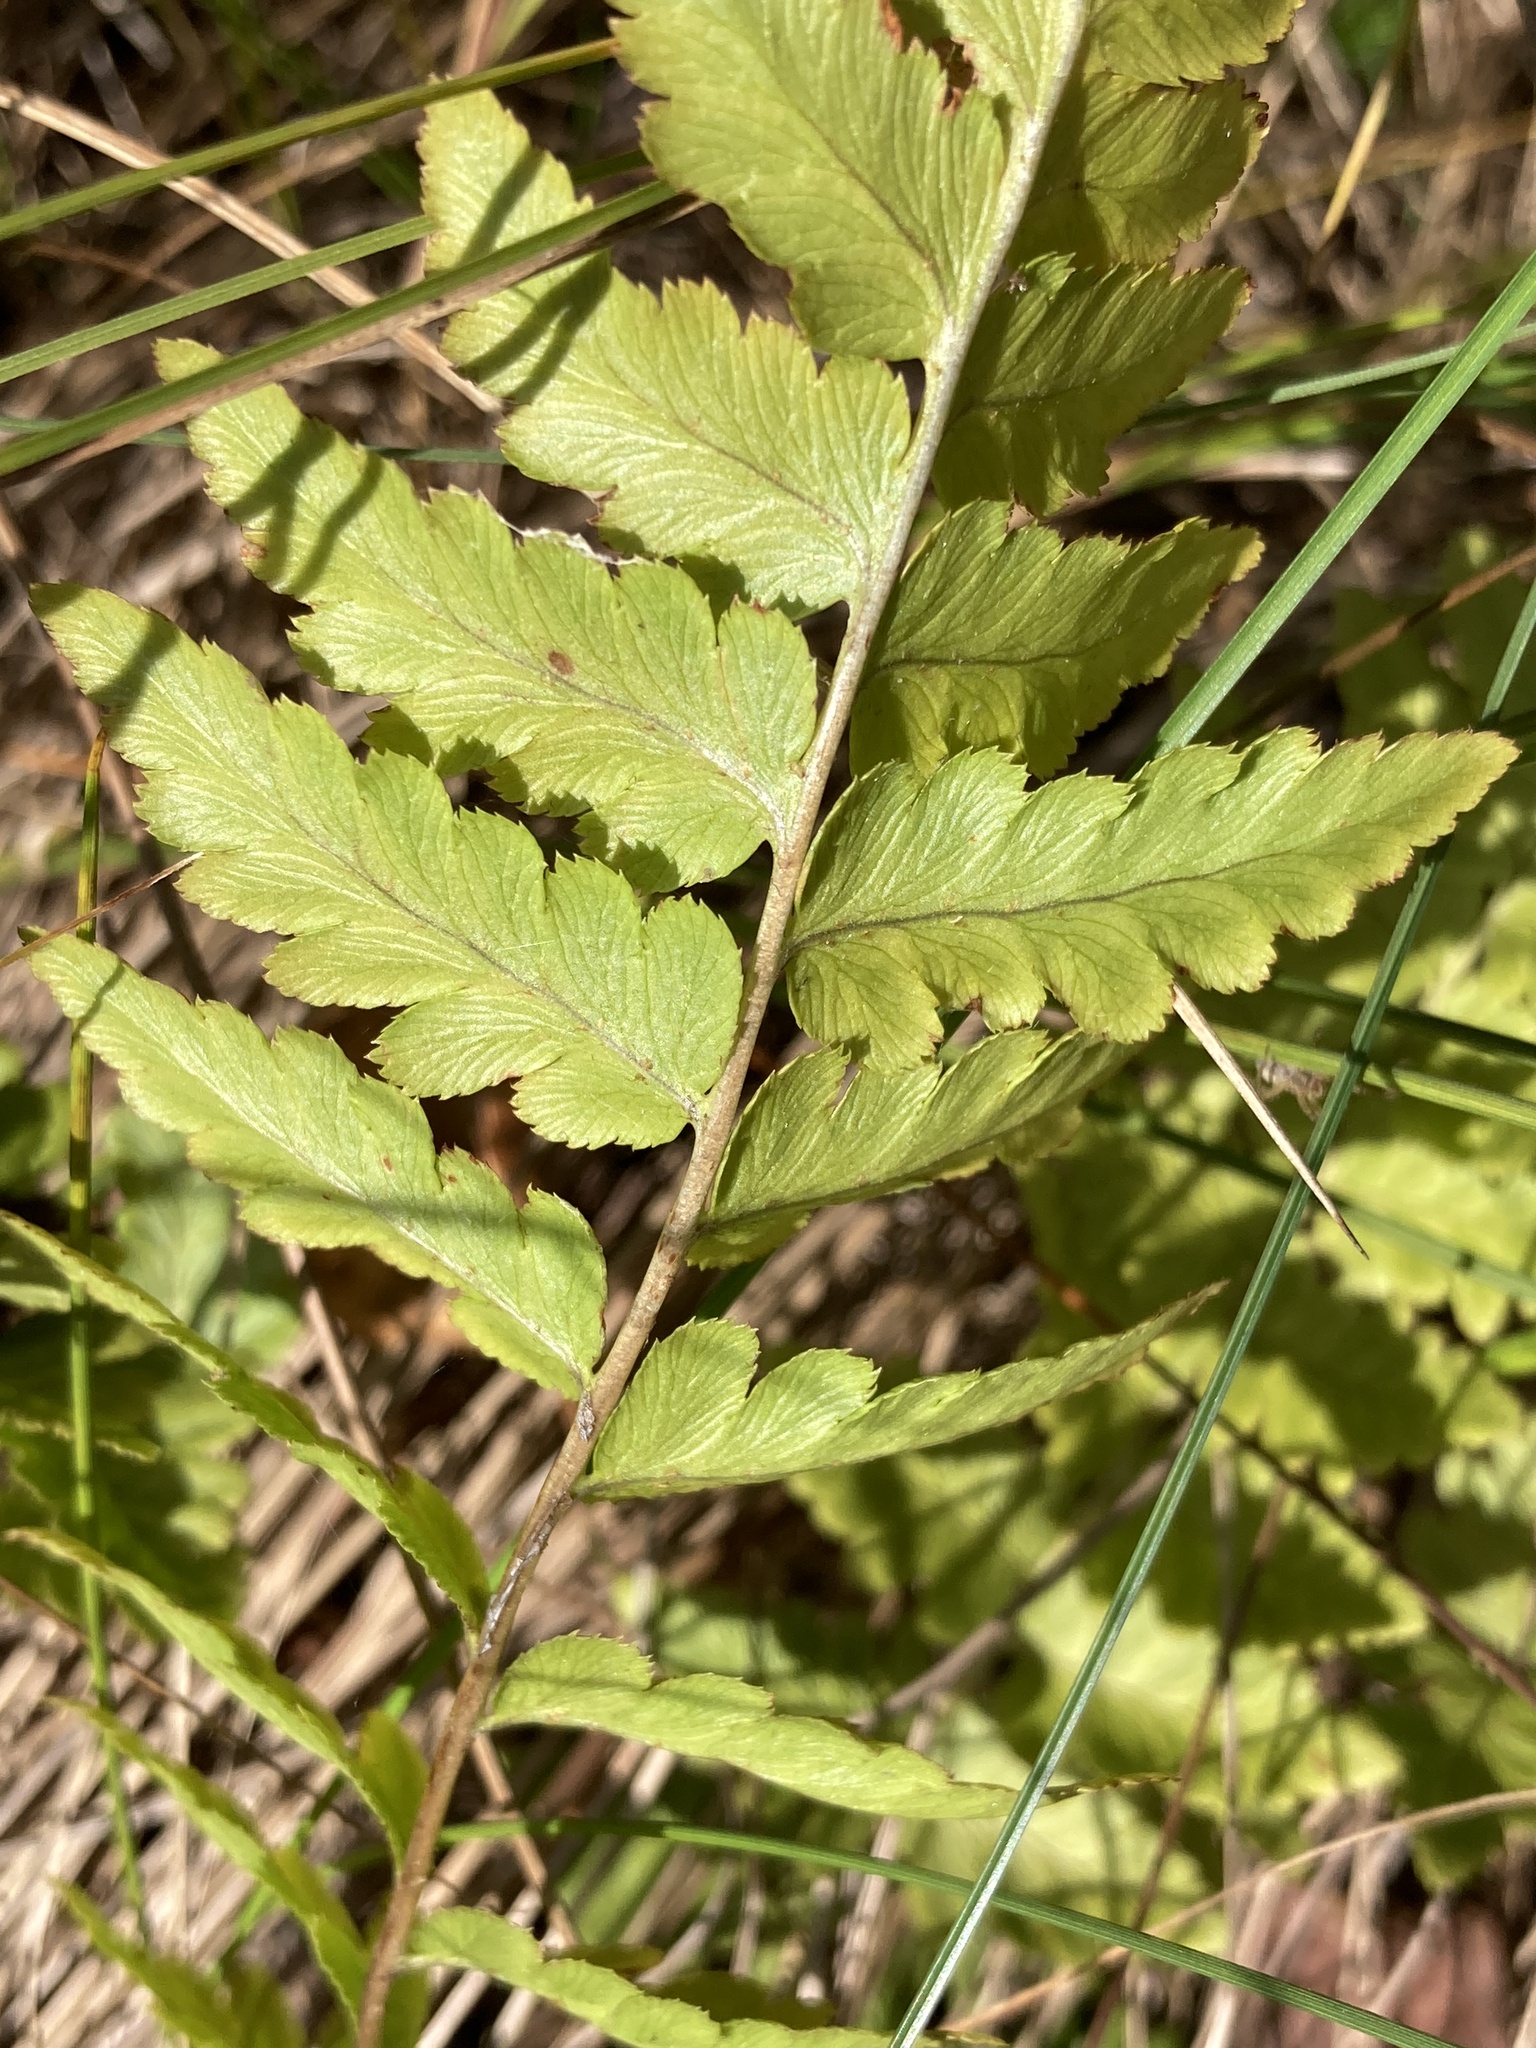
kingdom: Plantae
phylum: Tracheophyta
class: Polypodiopsida
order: Polypodiales
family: Dryopteridaceae
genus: Dryopteris
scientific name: Dryopteris cristata
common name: Crested wood fern
